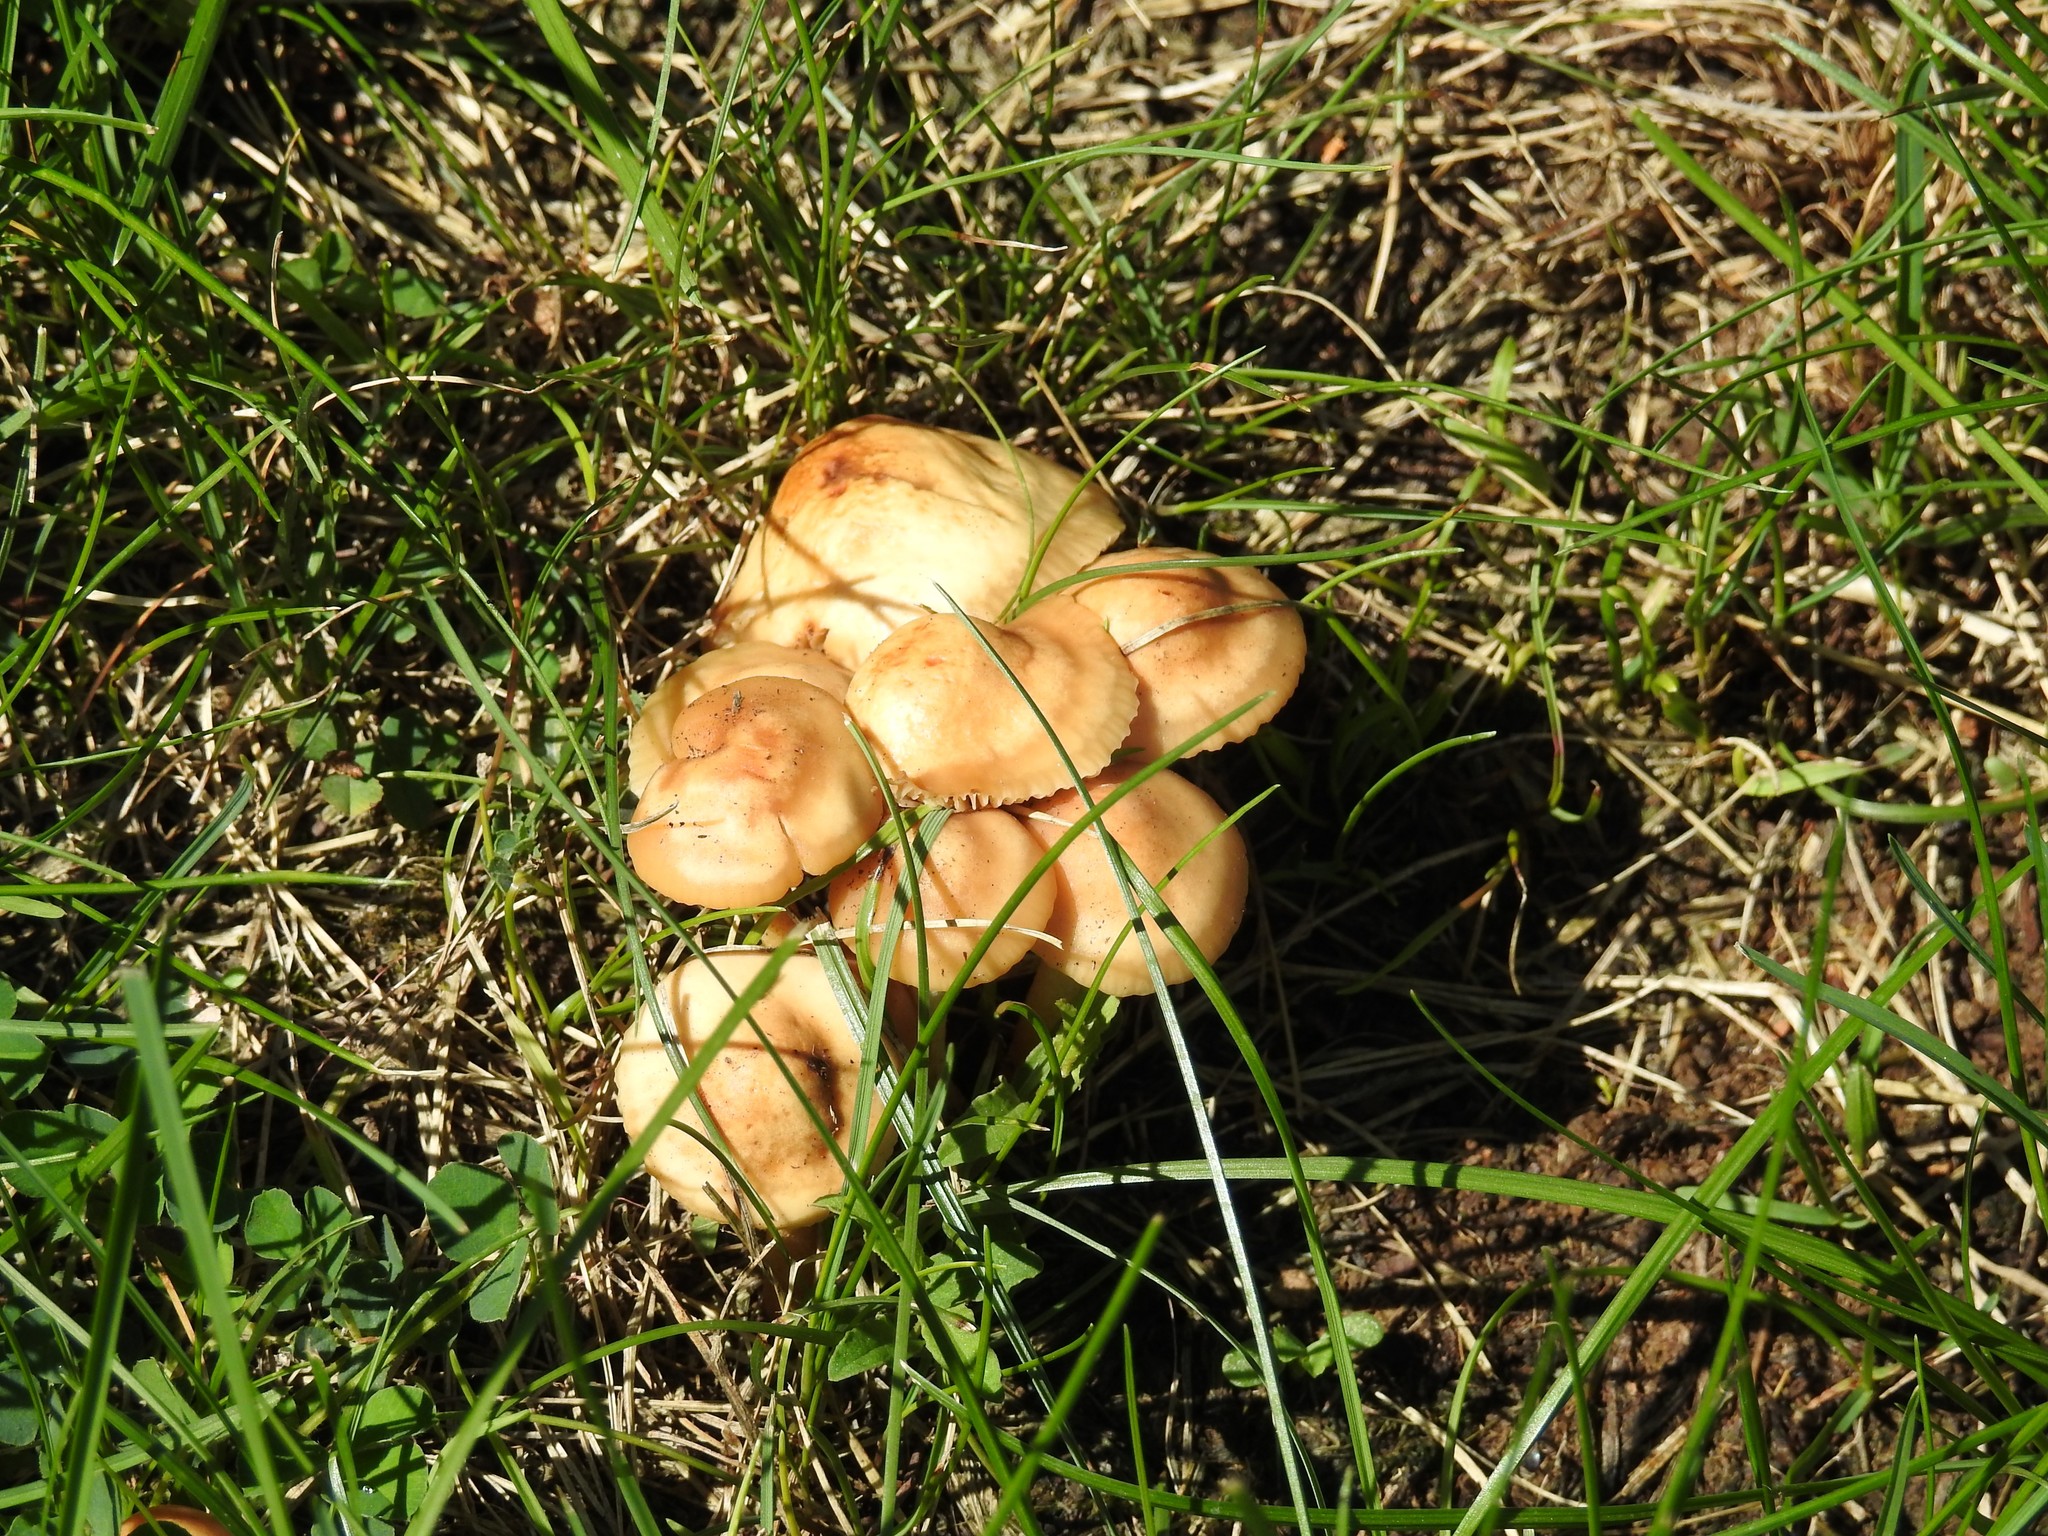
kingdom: Fungi
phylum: Basidiomycota
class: Agaricomycetes
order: Agaricales
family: Marasmiaceae
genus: Marasmius
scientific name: Marasmius oreades
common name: Fairy ring champignon
